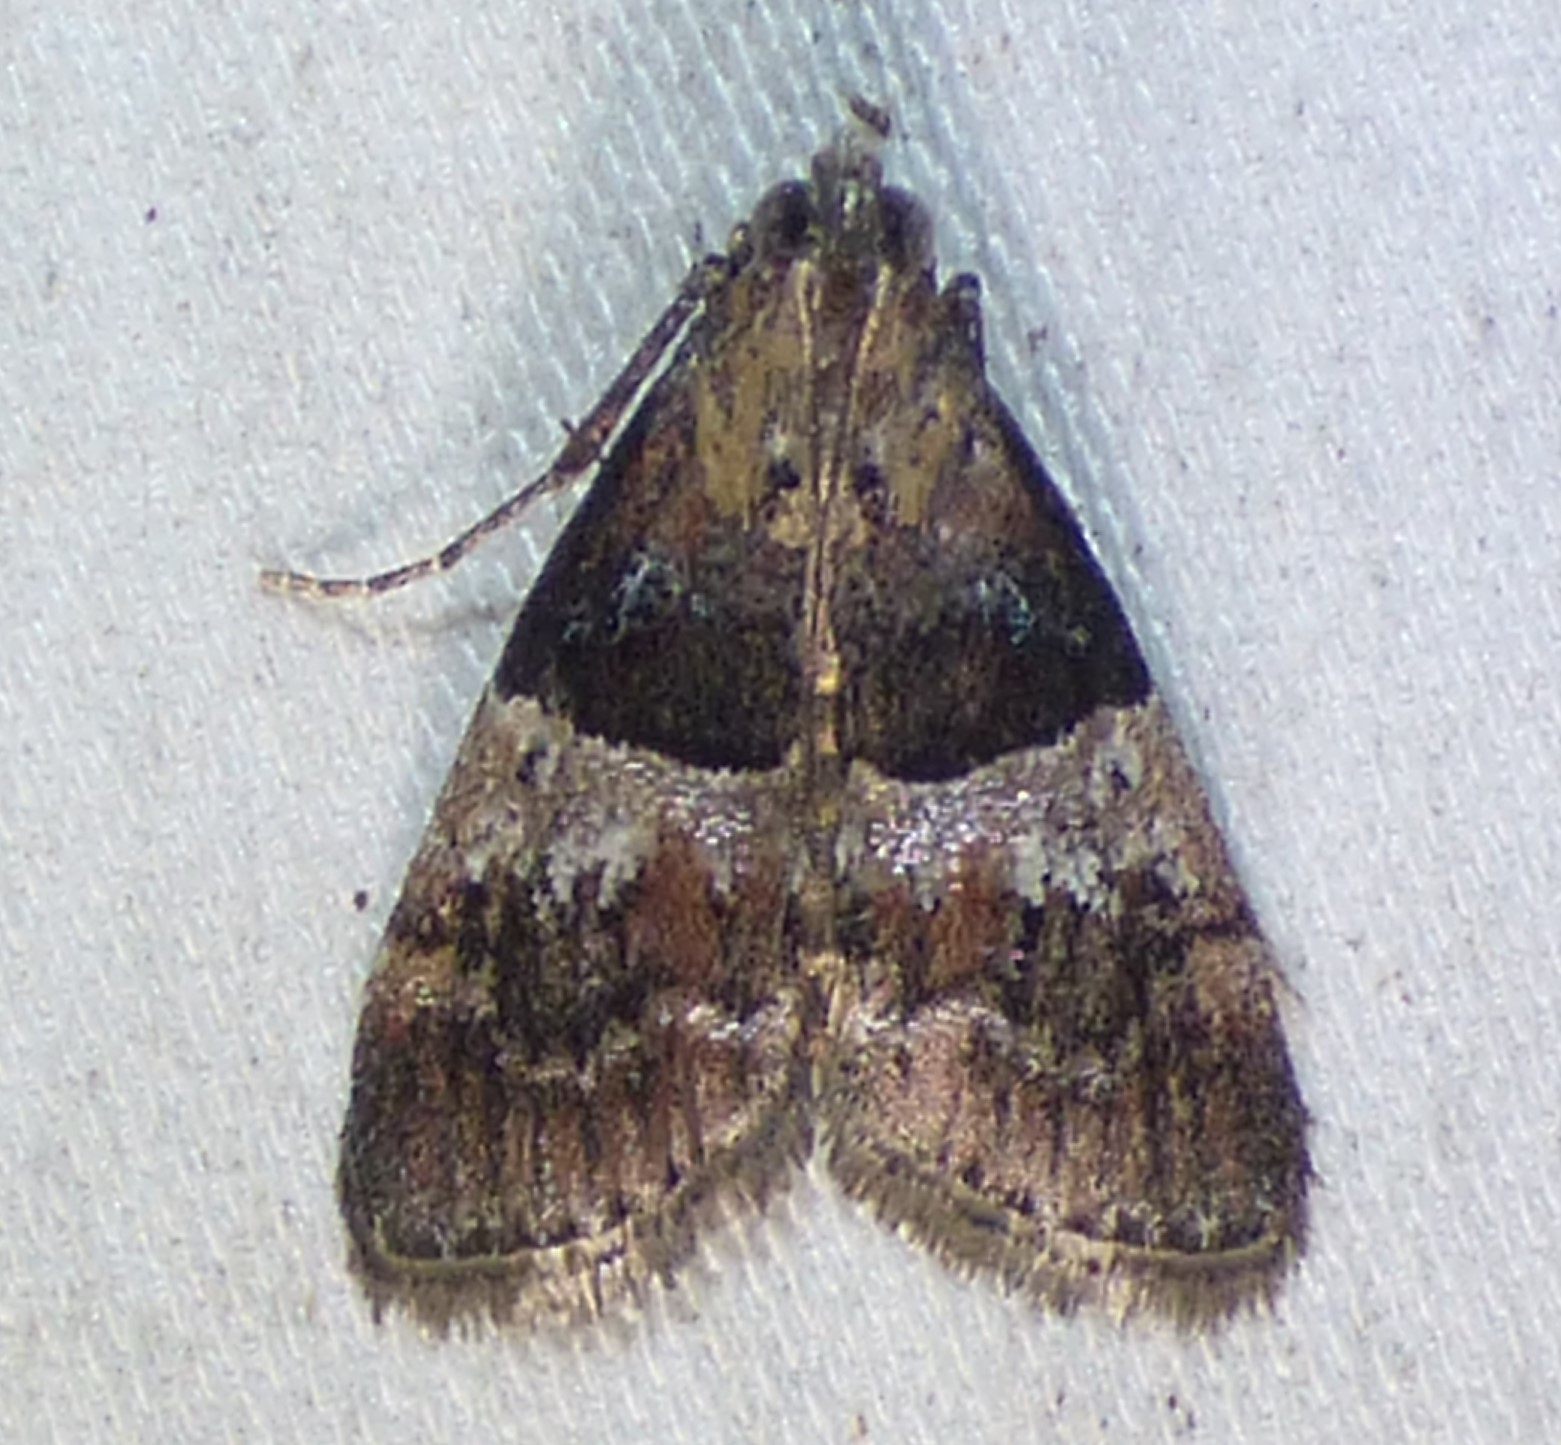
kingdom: Animalia
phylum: Arthropoda
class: Insecta
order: Lepidoptera
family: Pyralidae
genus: Pococera
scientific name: Pococera scortealis
